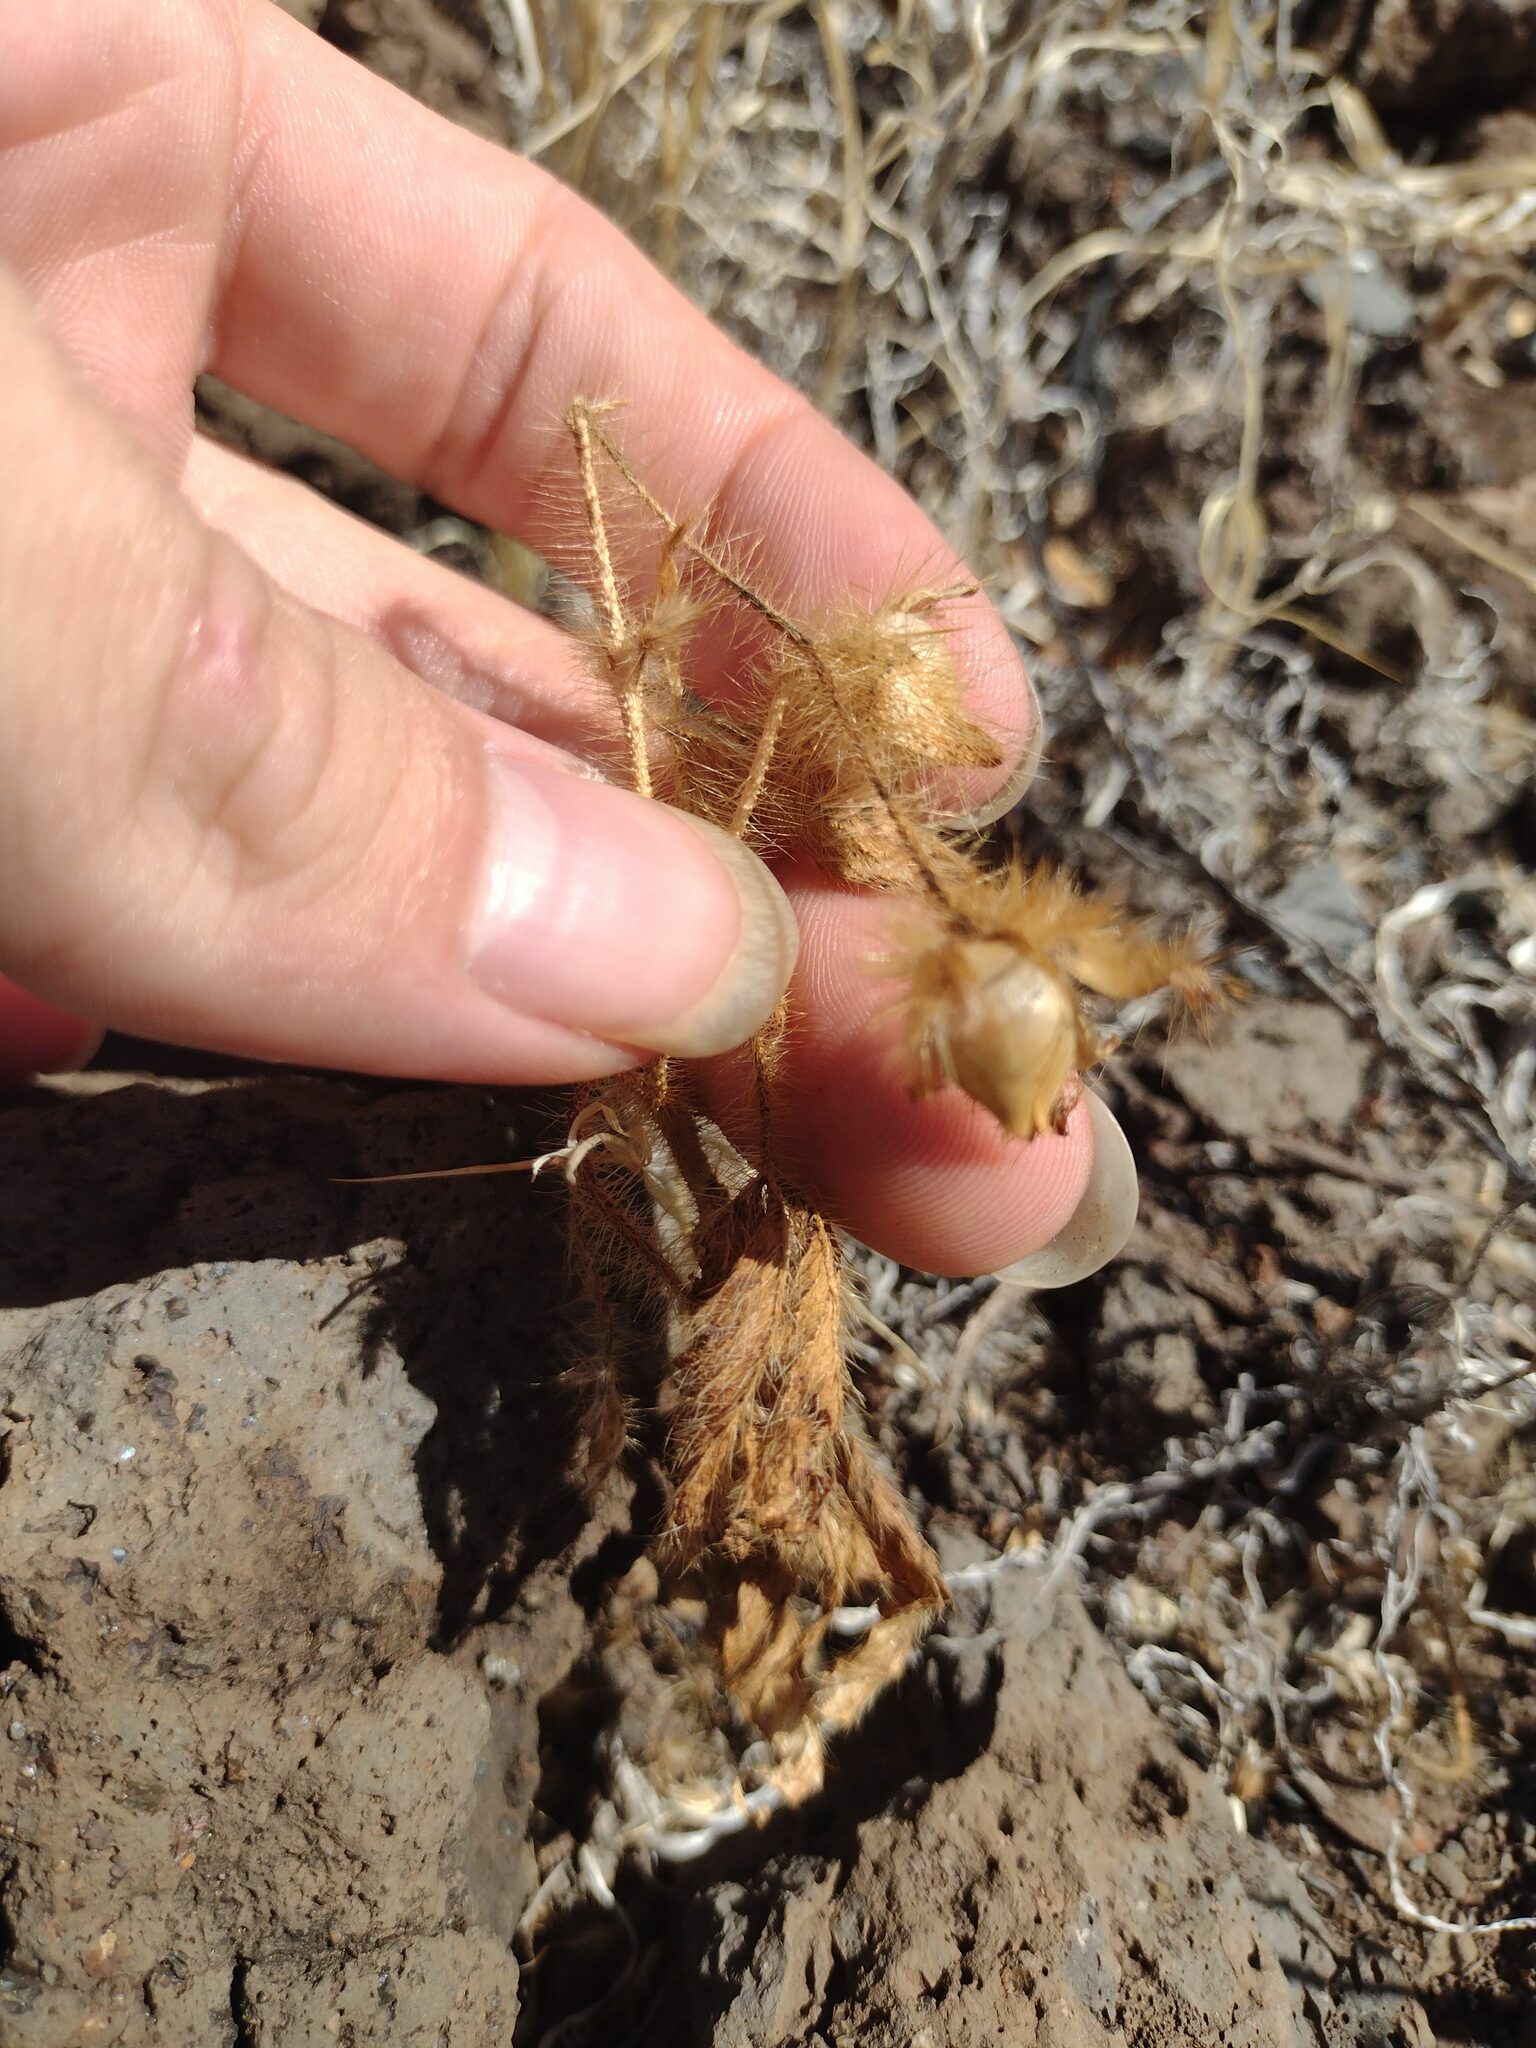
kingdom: Plantae
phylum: Tracheophyta
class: Magnoliopsida
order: Solanales
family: Convolvulaceae
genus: Distimake
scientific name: Distimake aegyptius
